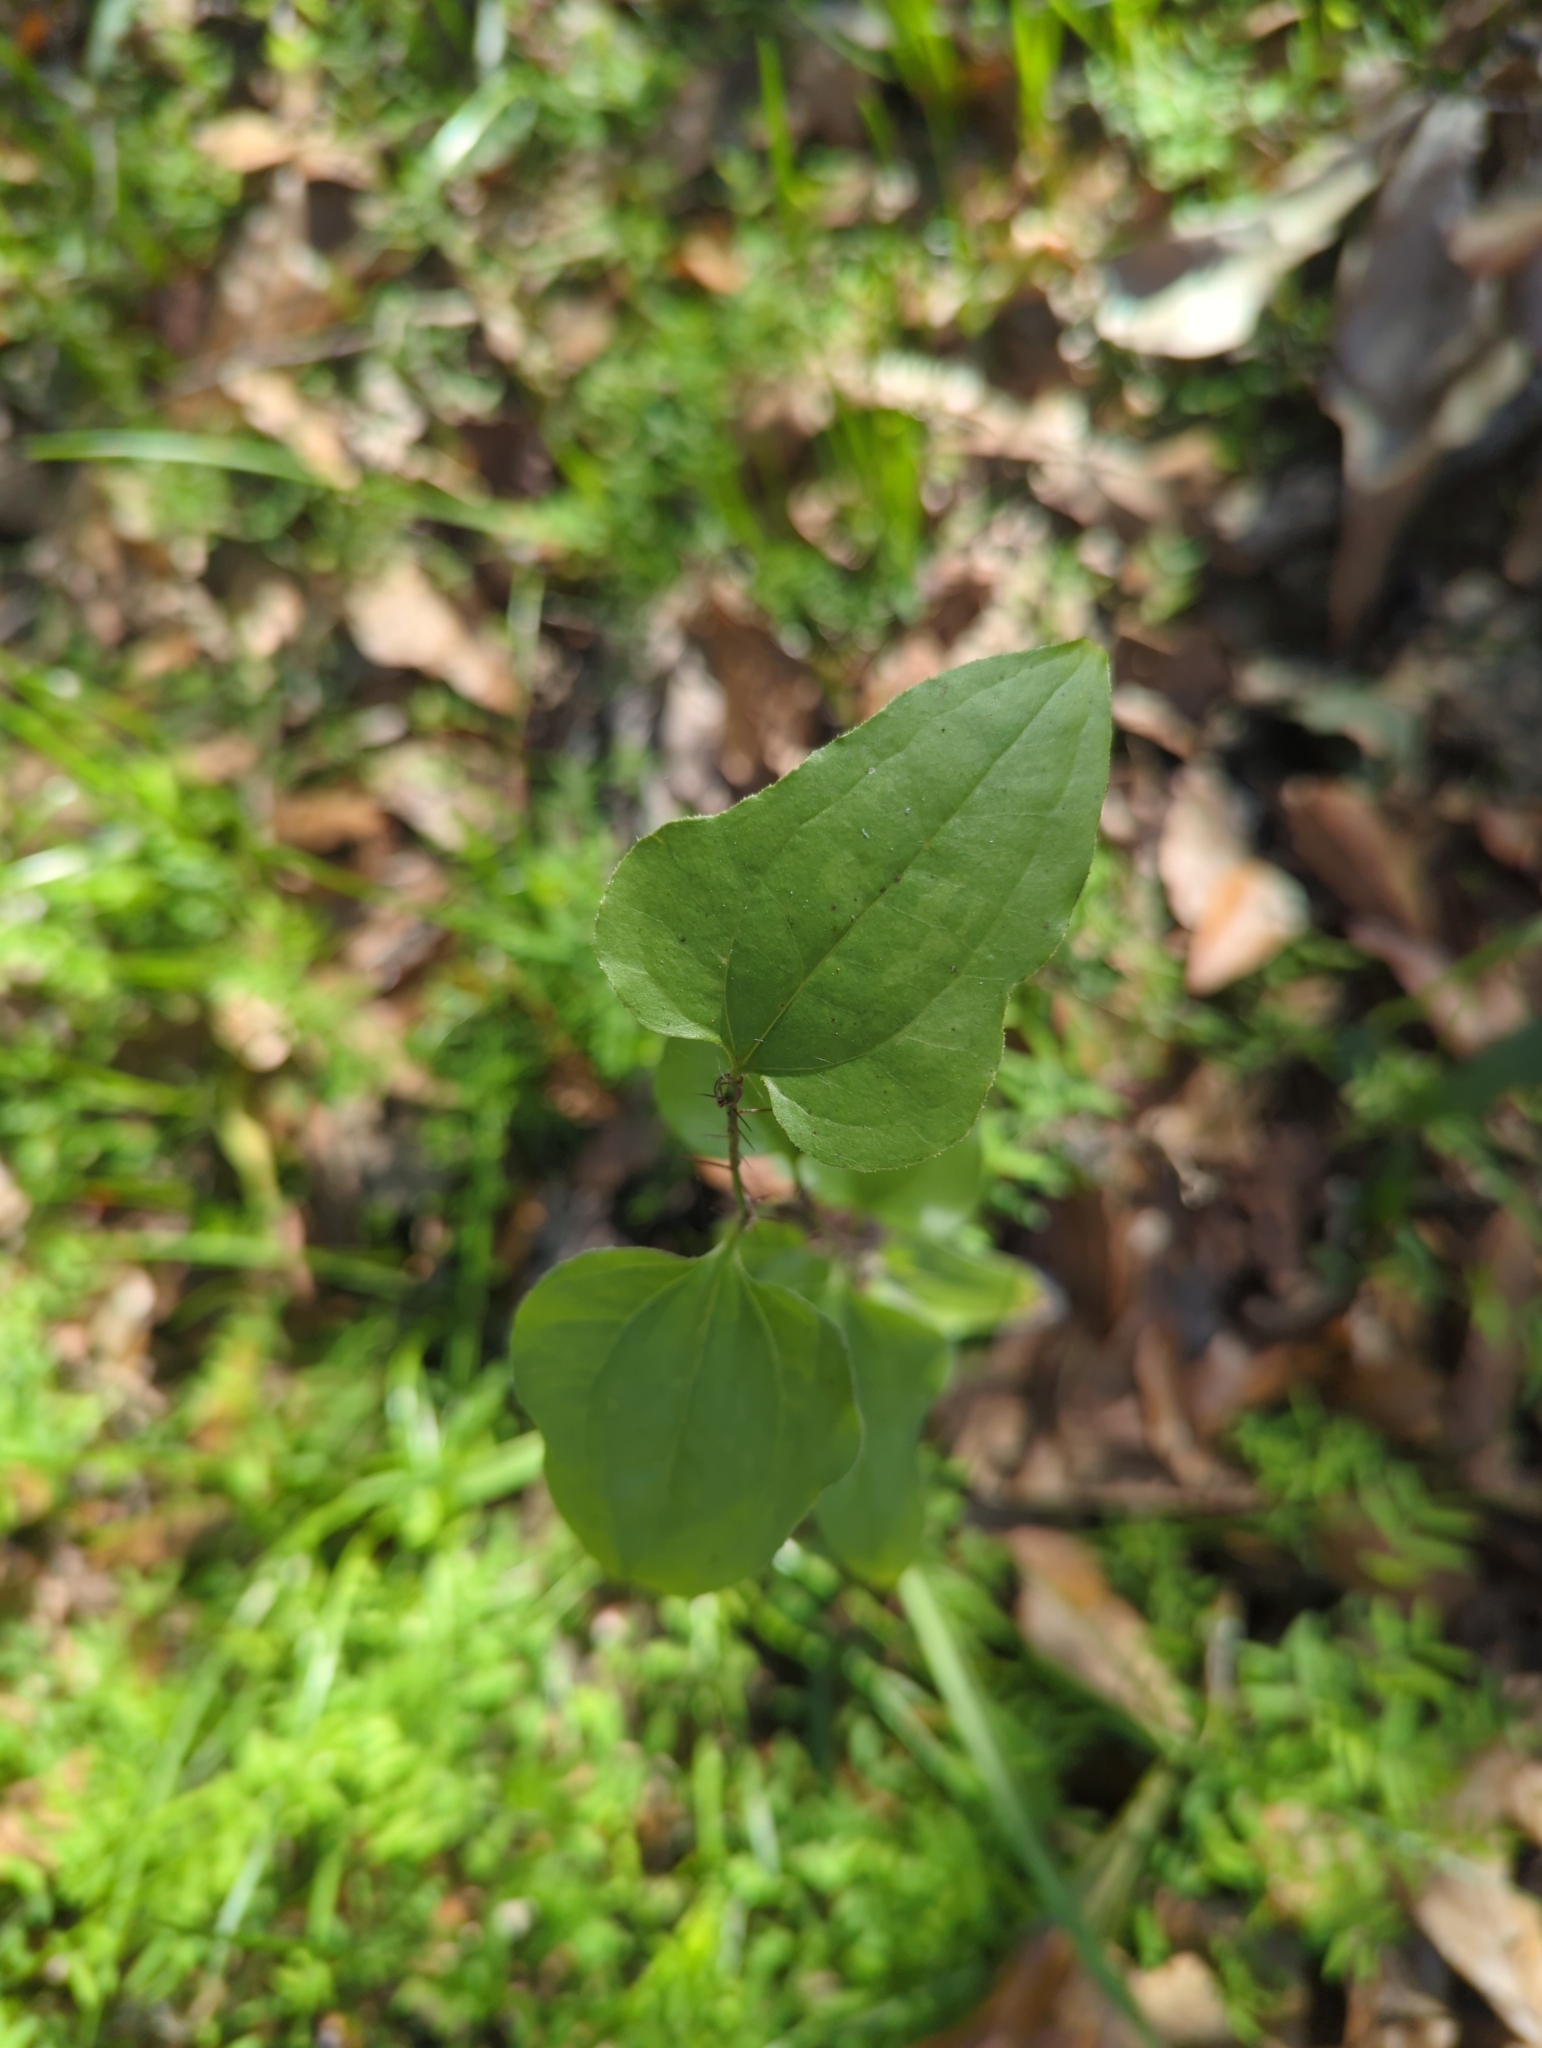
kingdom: Plantae
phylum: Tracheophyta
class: Liliopsida
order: Liliales
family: Smilacaceae
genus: Smilax
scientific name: Smilax tamnoides
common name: Hellfetter
